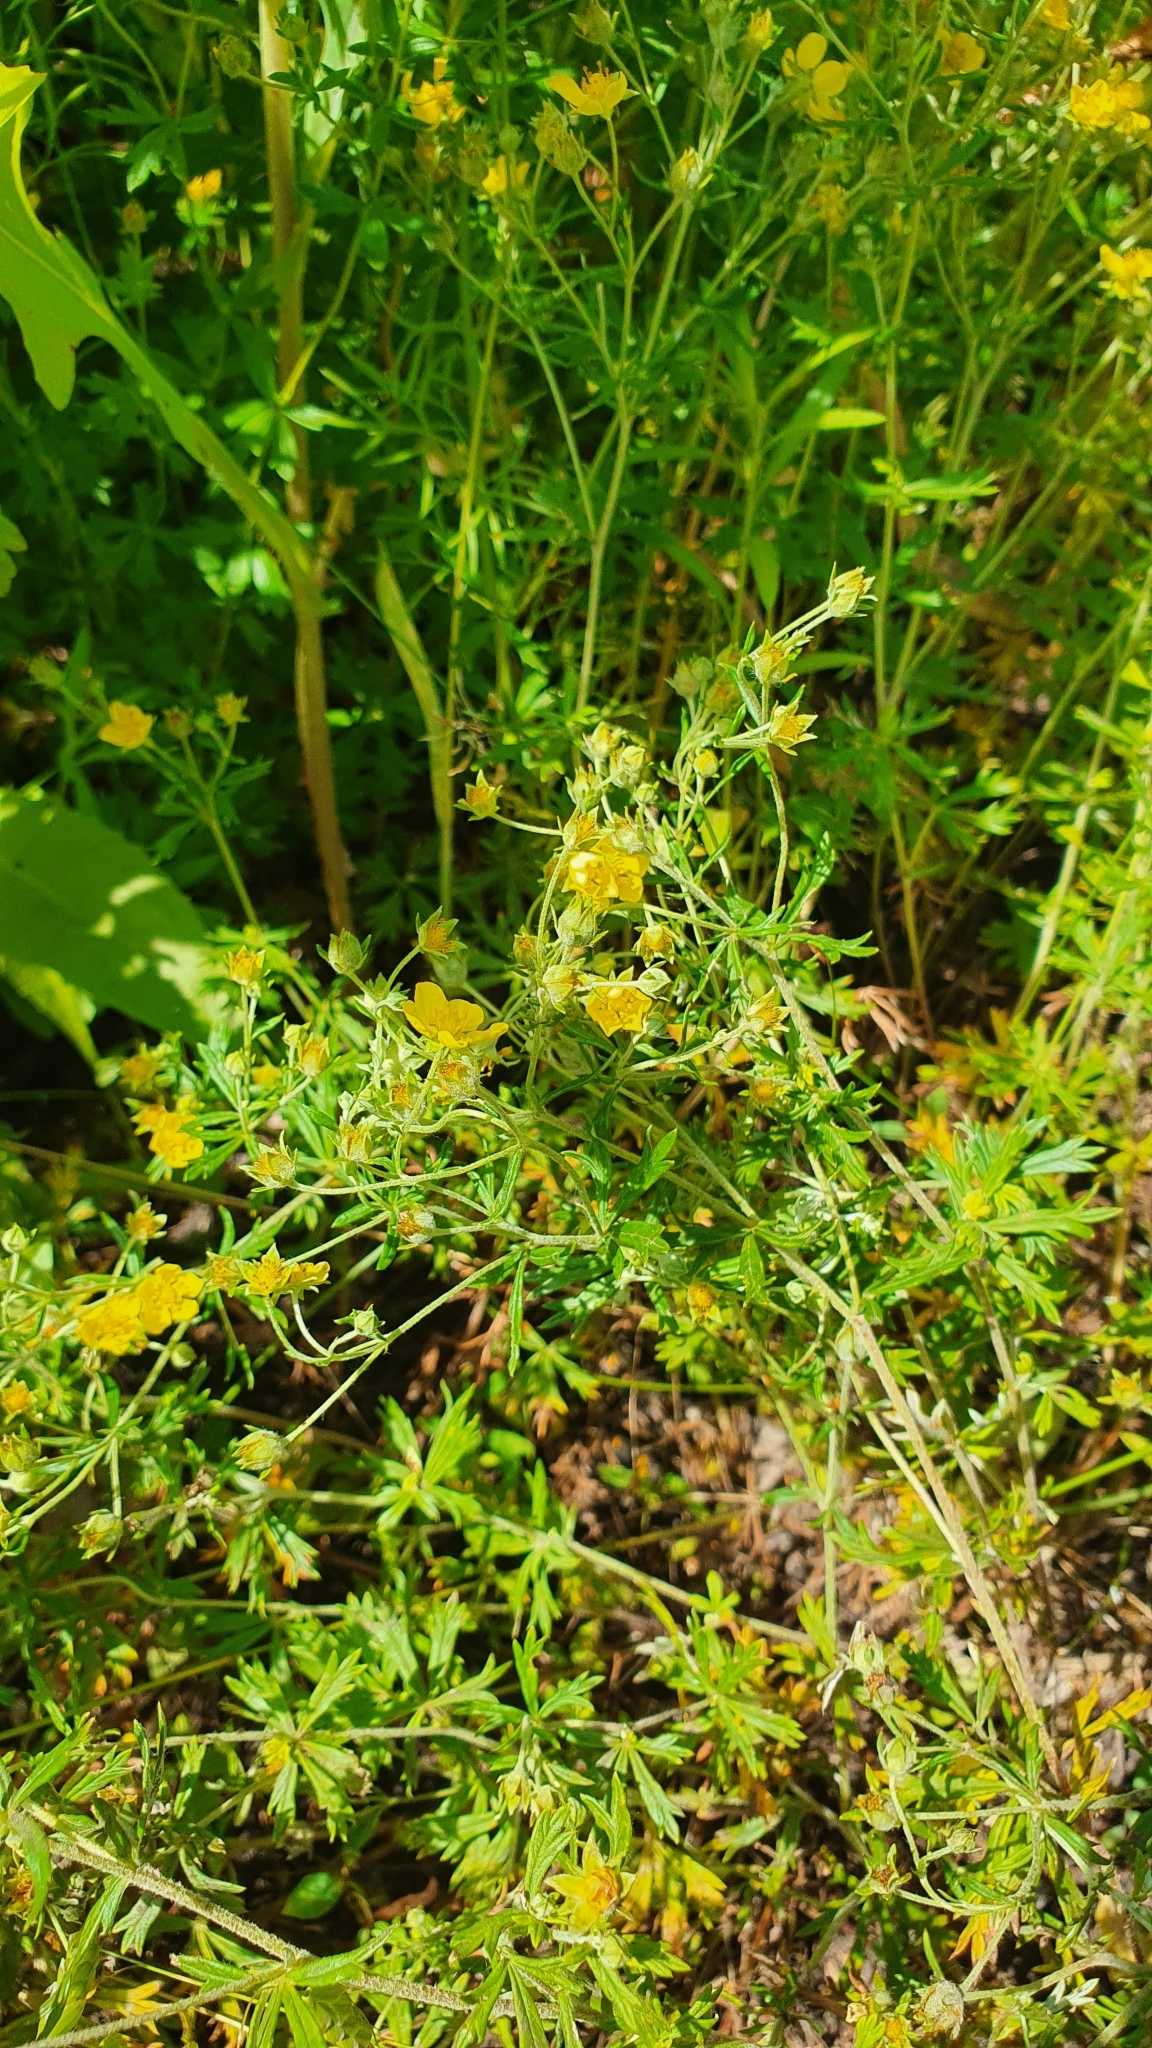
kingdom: Plantae
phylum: Tracheophyta
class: Magnoliopsida
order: Rosales
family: Rosaceae
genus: Potentilla
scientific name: Potentilla argentea
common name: Hoary cinquefoil
